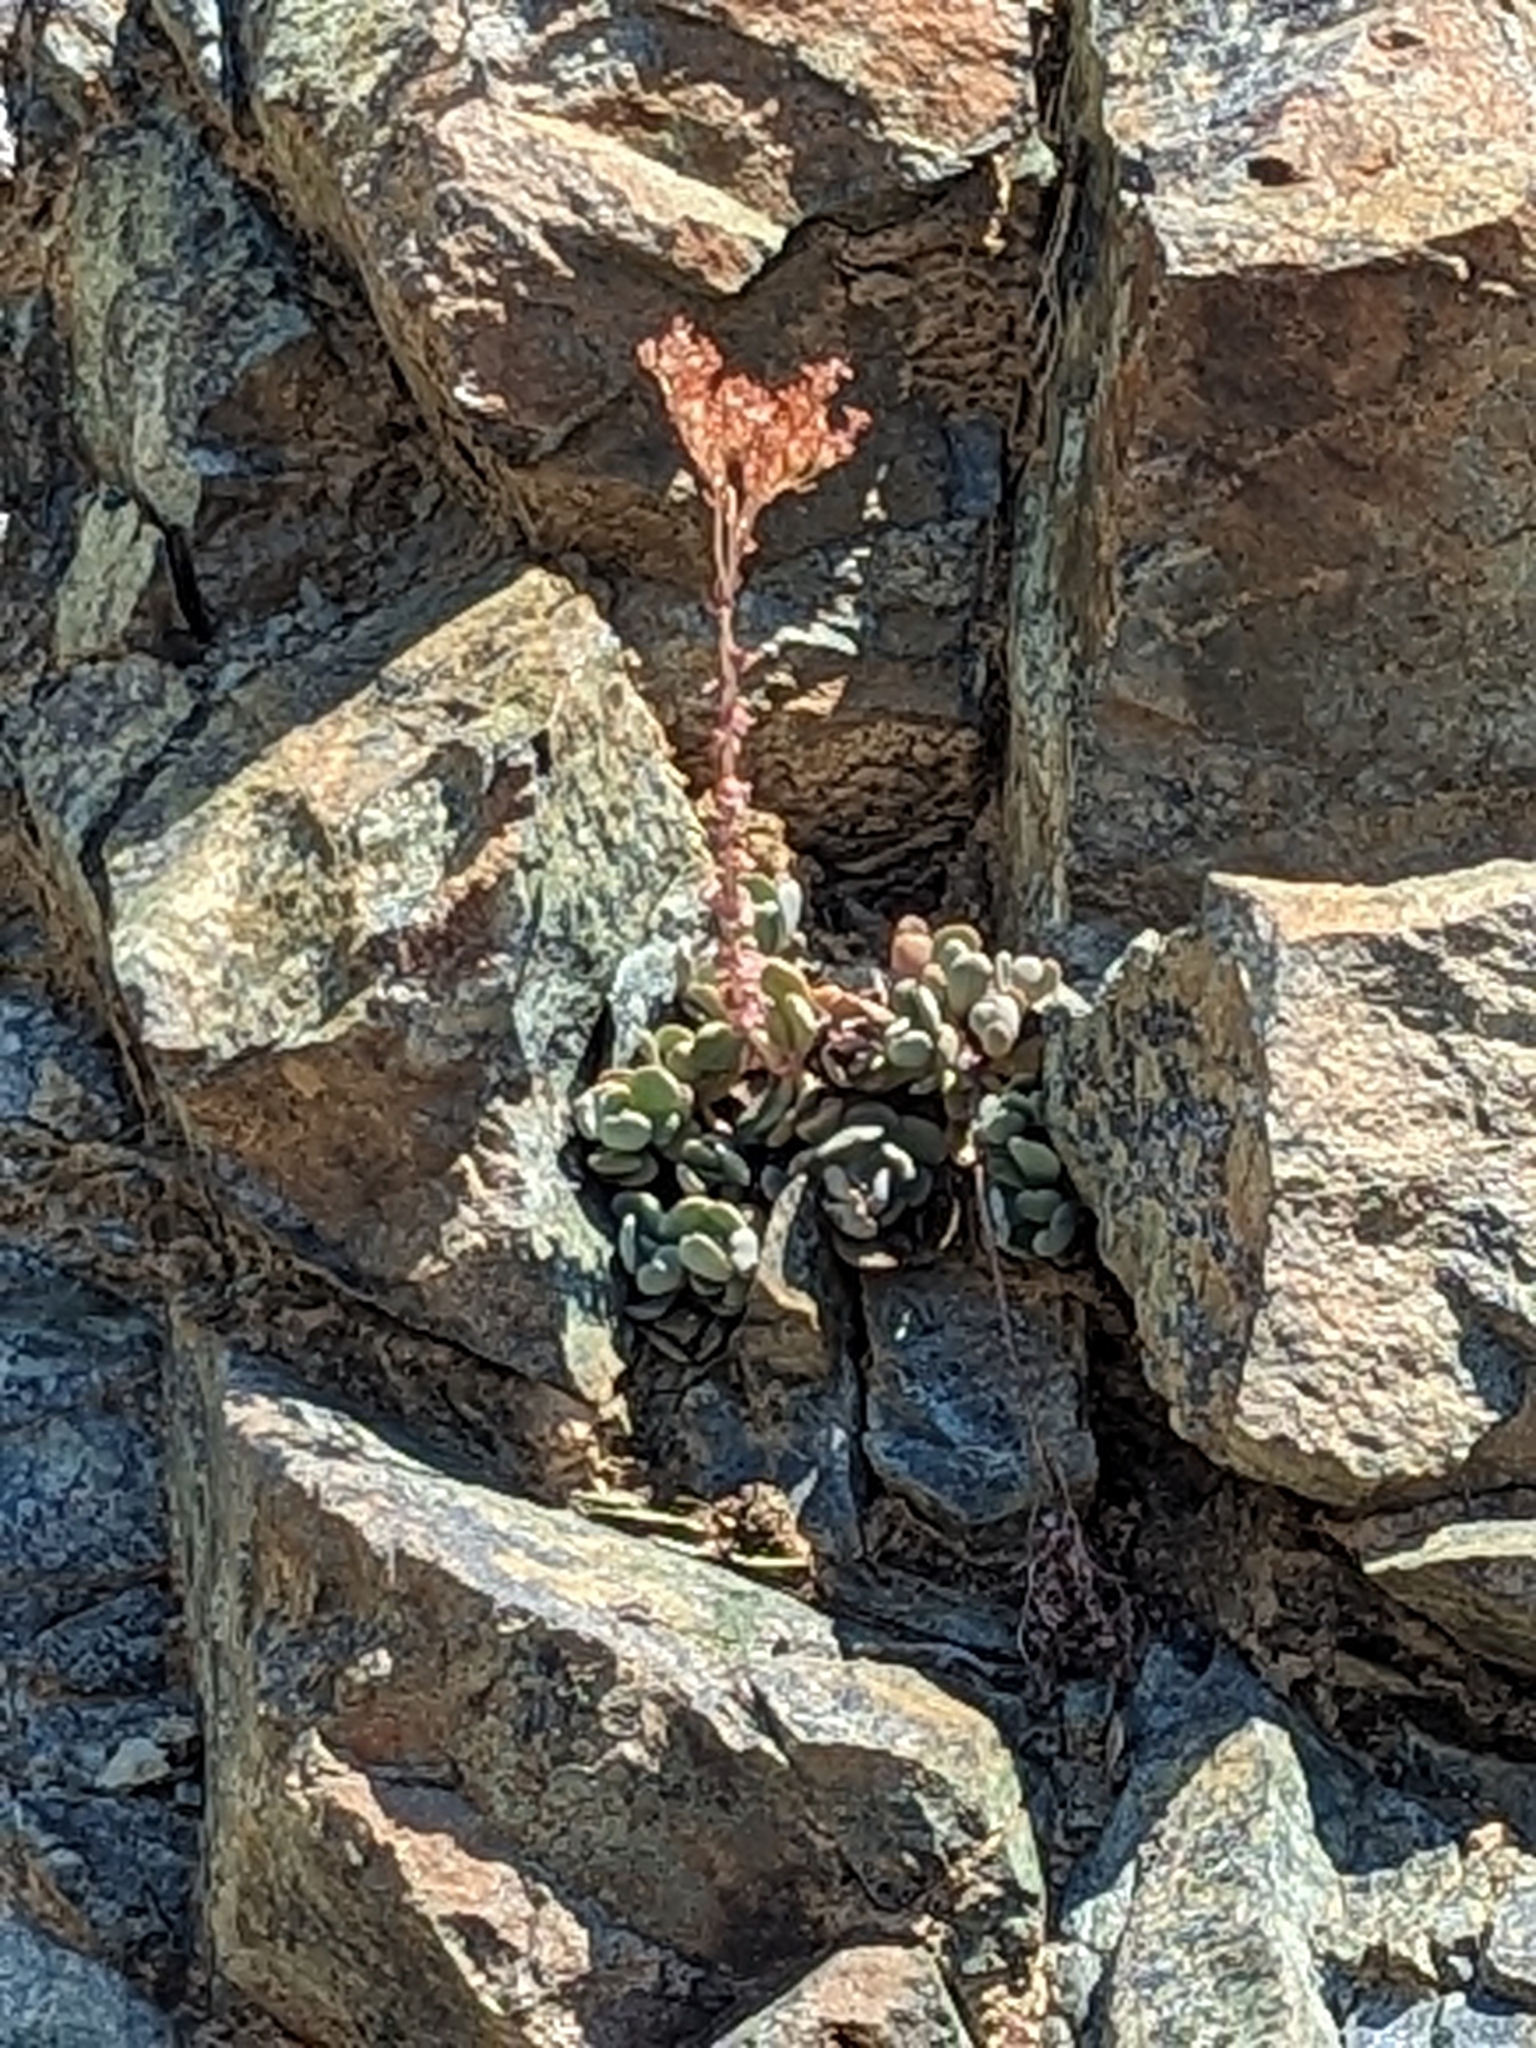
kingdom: Plantae
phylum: Tracheophyta
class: Magnoliopsida
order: Saxifragales
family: Crassulaceae
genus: Sedum
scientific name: Sedum
